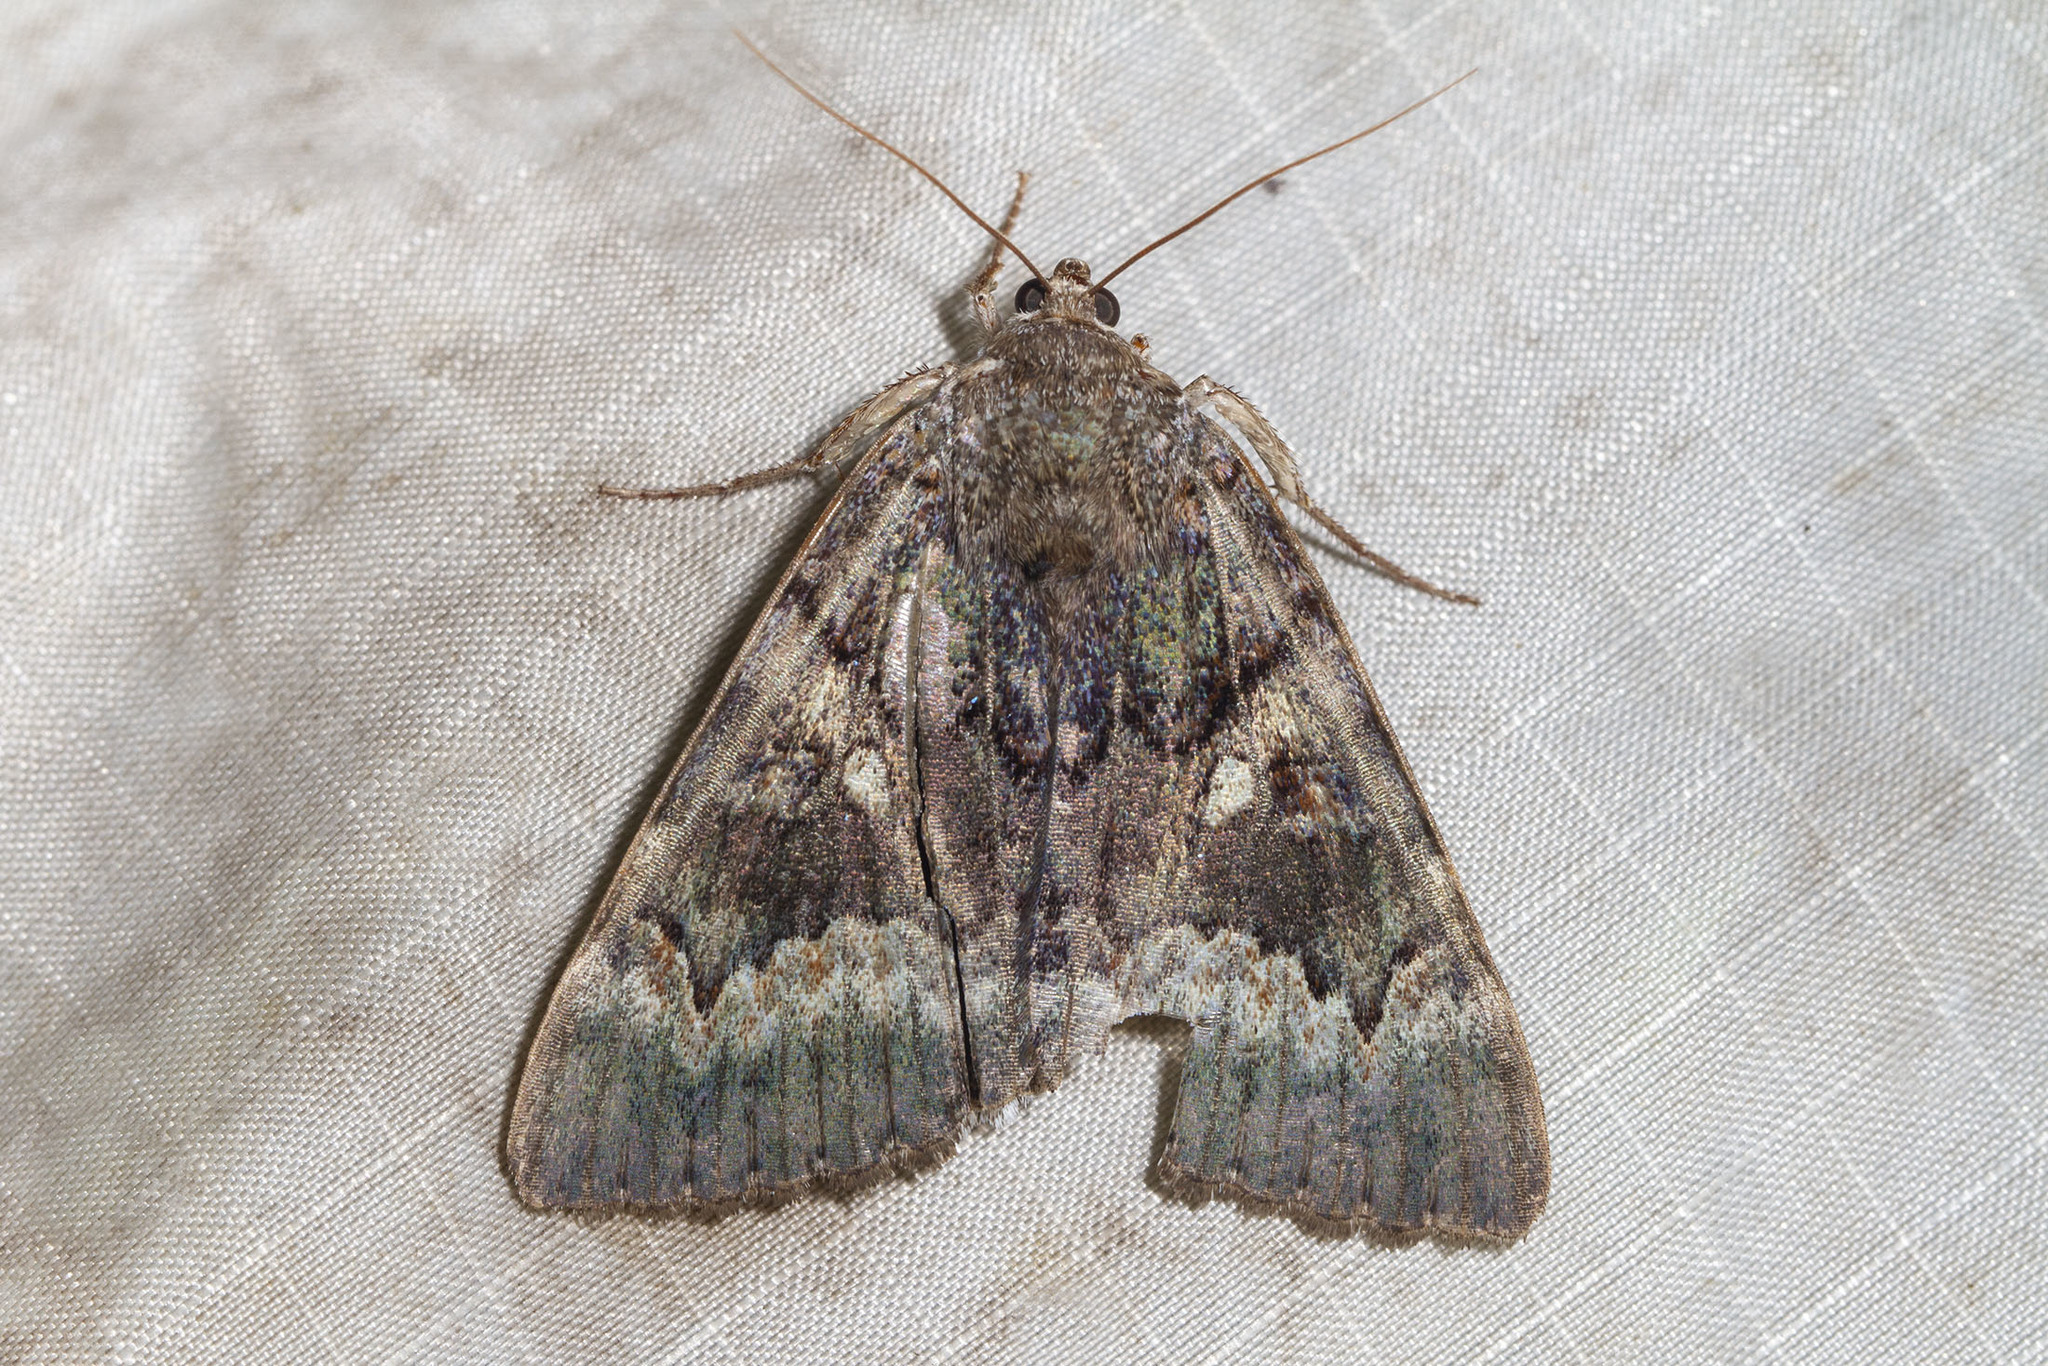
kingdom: Animalia
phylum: Arthropoda
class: Insecta
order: Lepidoptera
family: Erebidae
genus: Catocala
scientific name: Catocala epione
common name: Epione underwing
